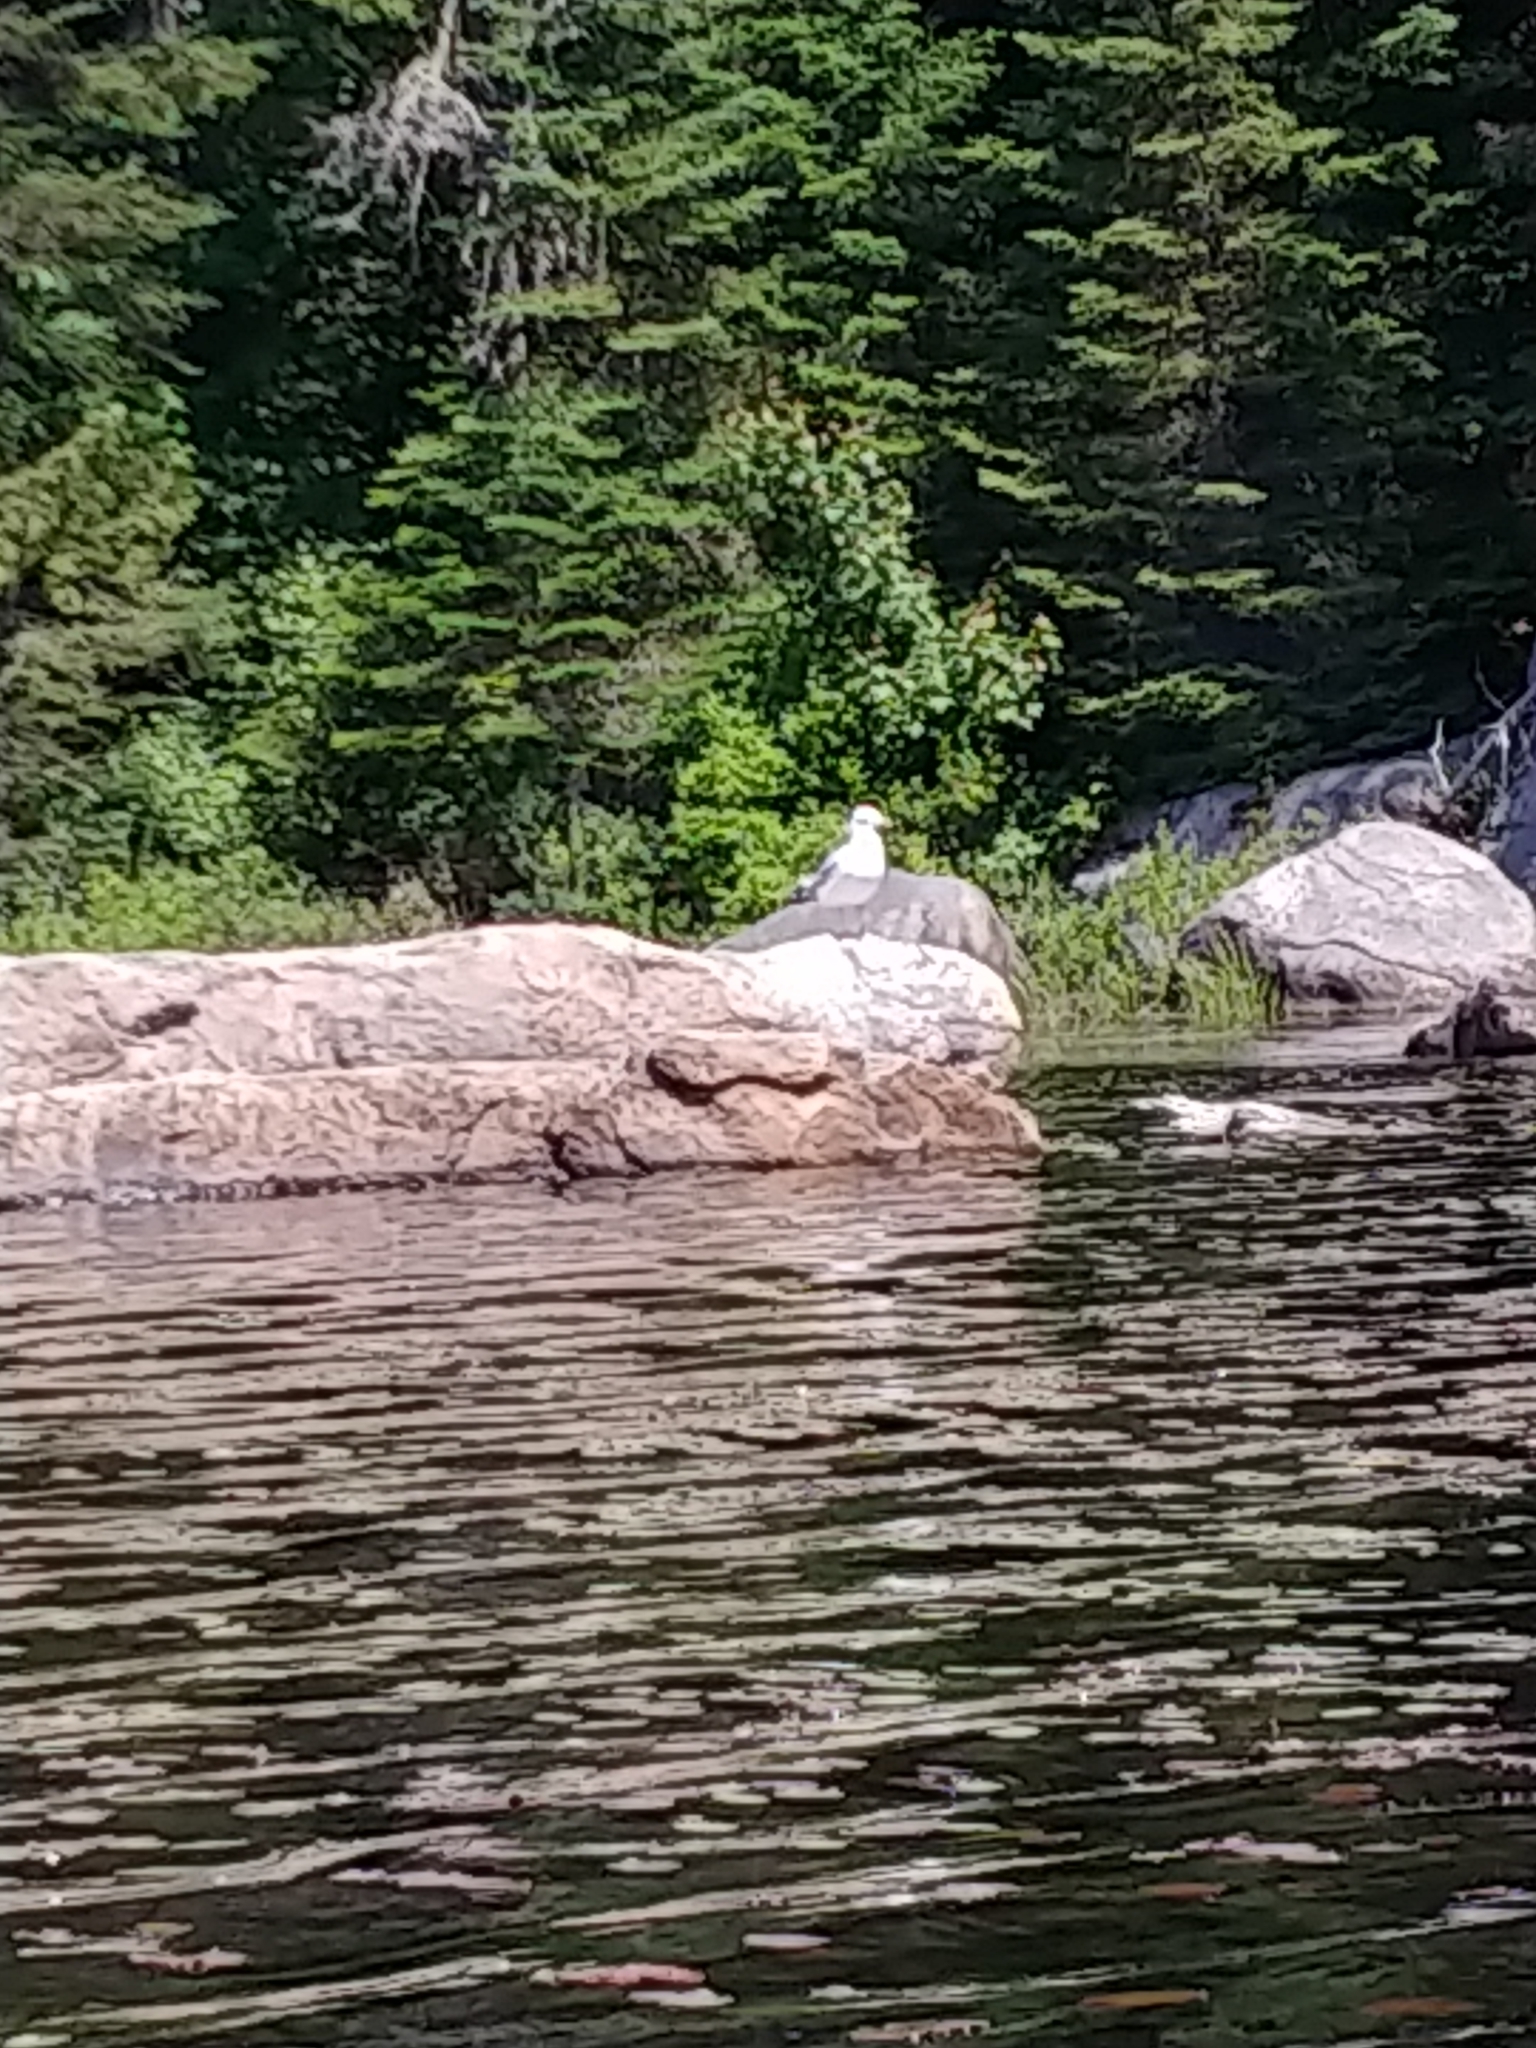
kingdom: Animalia
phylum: Chordata
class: Aves
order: Charadriiformes
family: Laridae
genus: Larus
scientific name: Larus argentatus
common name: Herring gull
